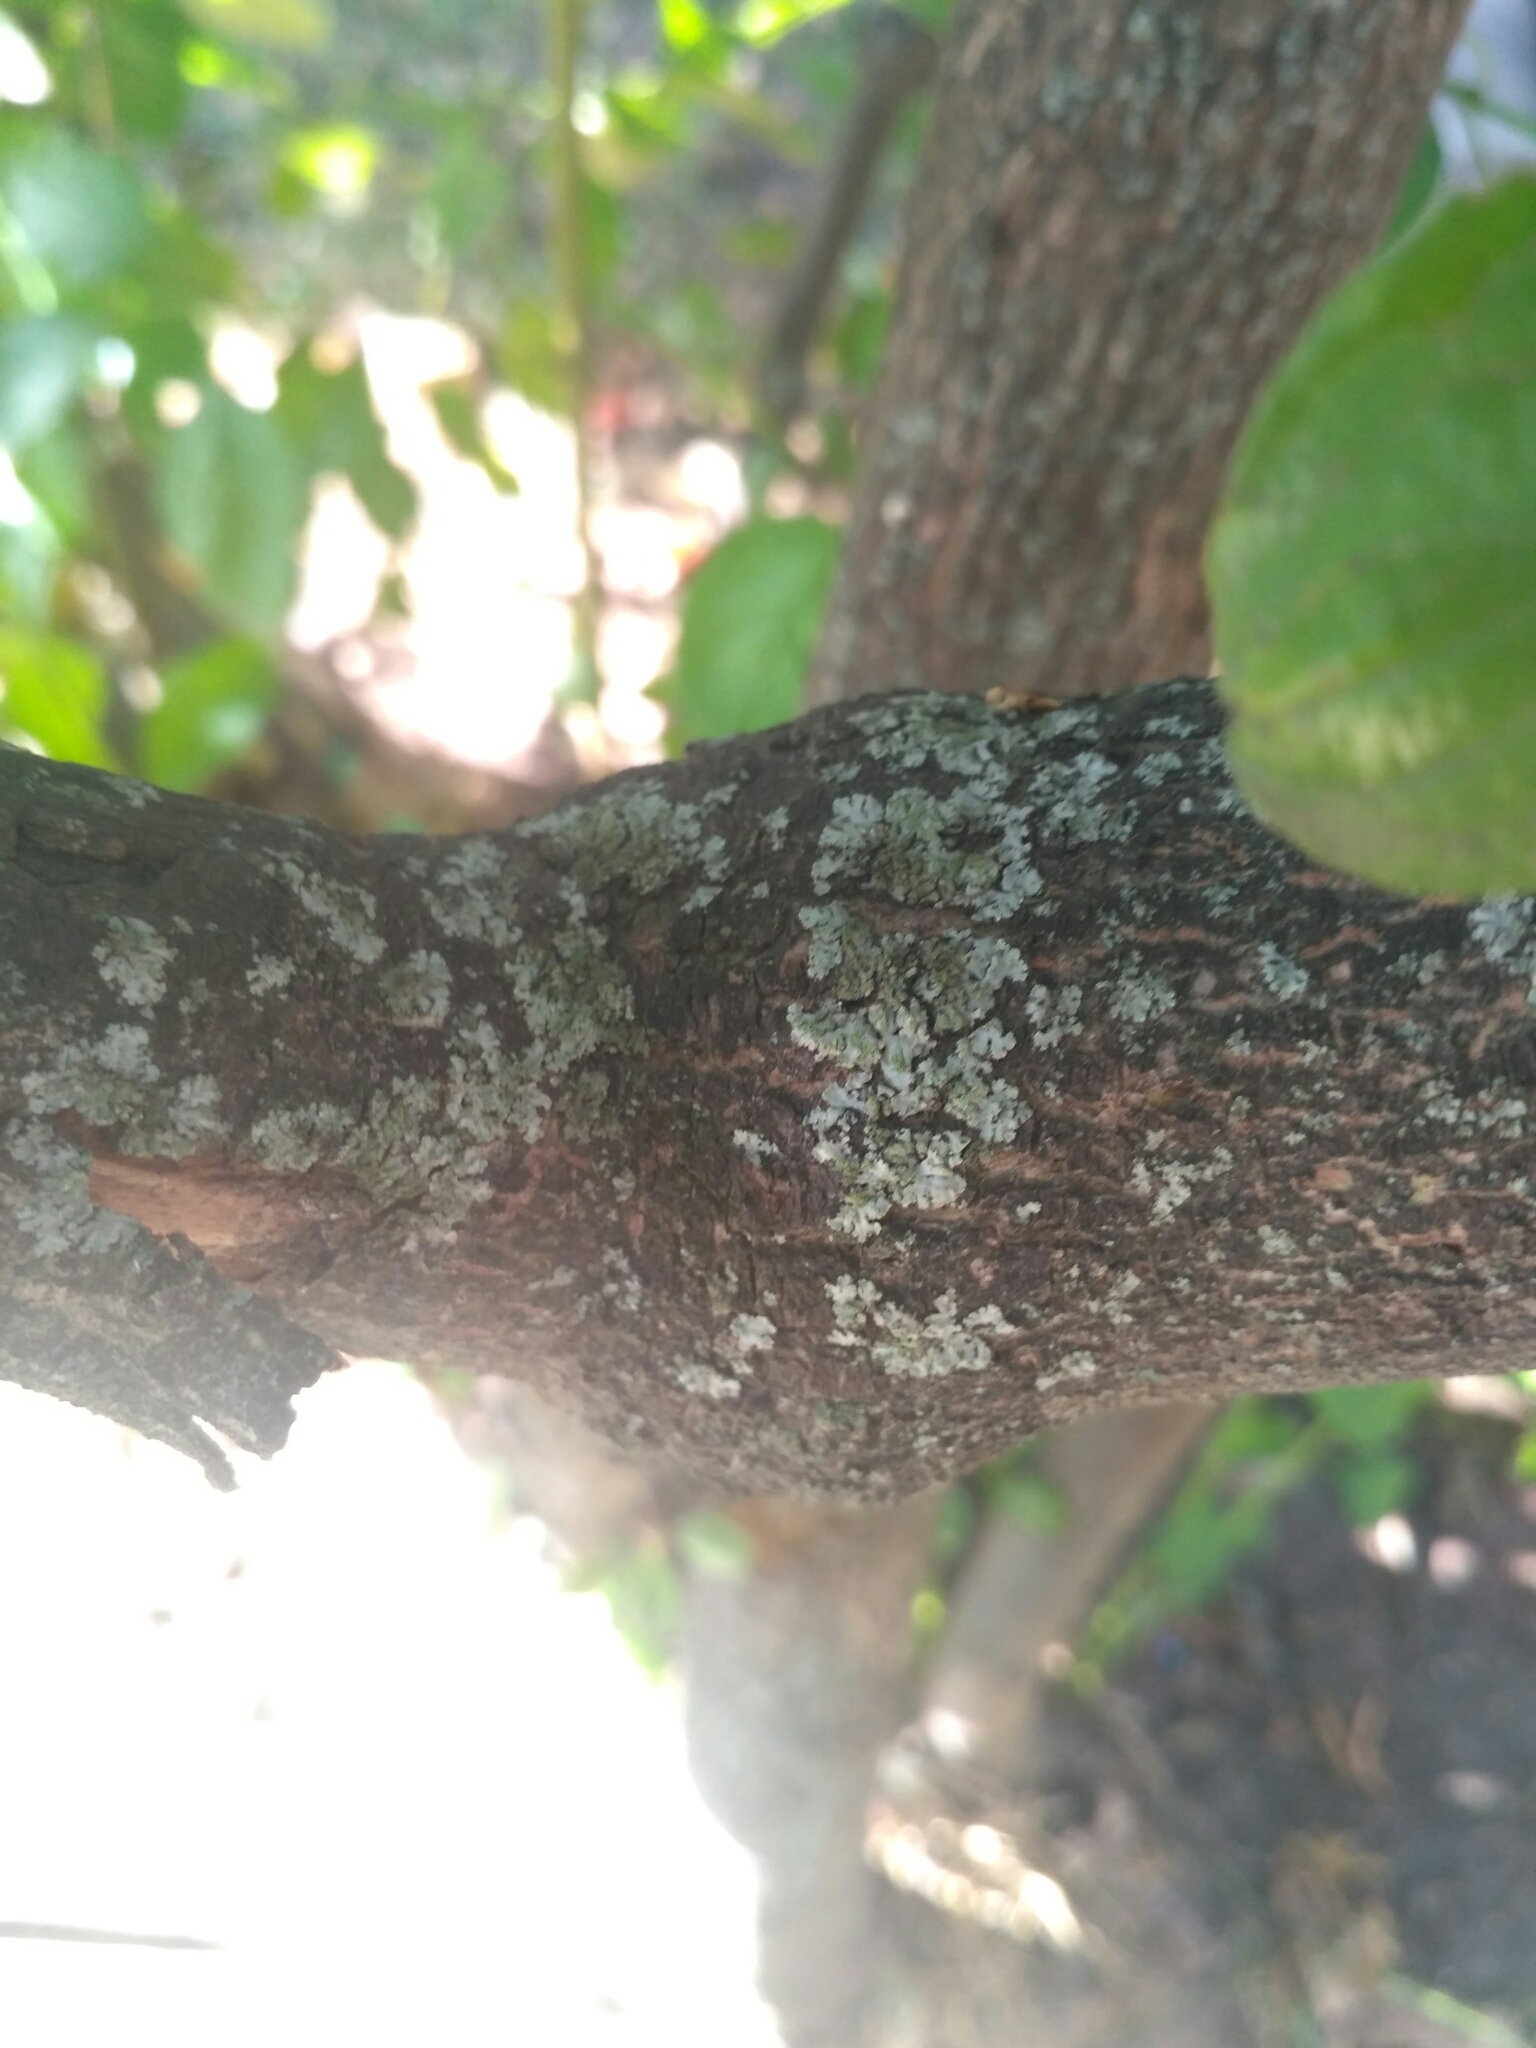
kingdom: Fungi
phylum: Ascomycota
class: Lecanoromycetes
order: Caliciales
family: Physciaceae
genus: Phaeophyscia
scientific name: Phaeophyscia orbicularis
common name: Mealy shadow lichen
